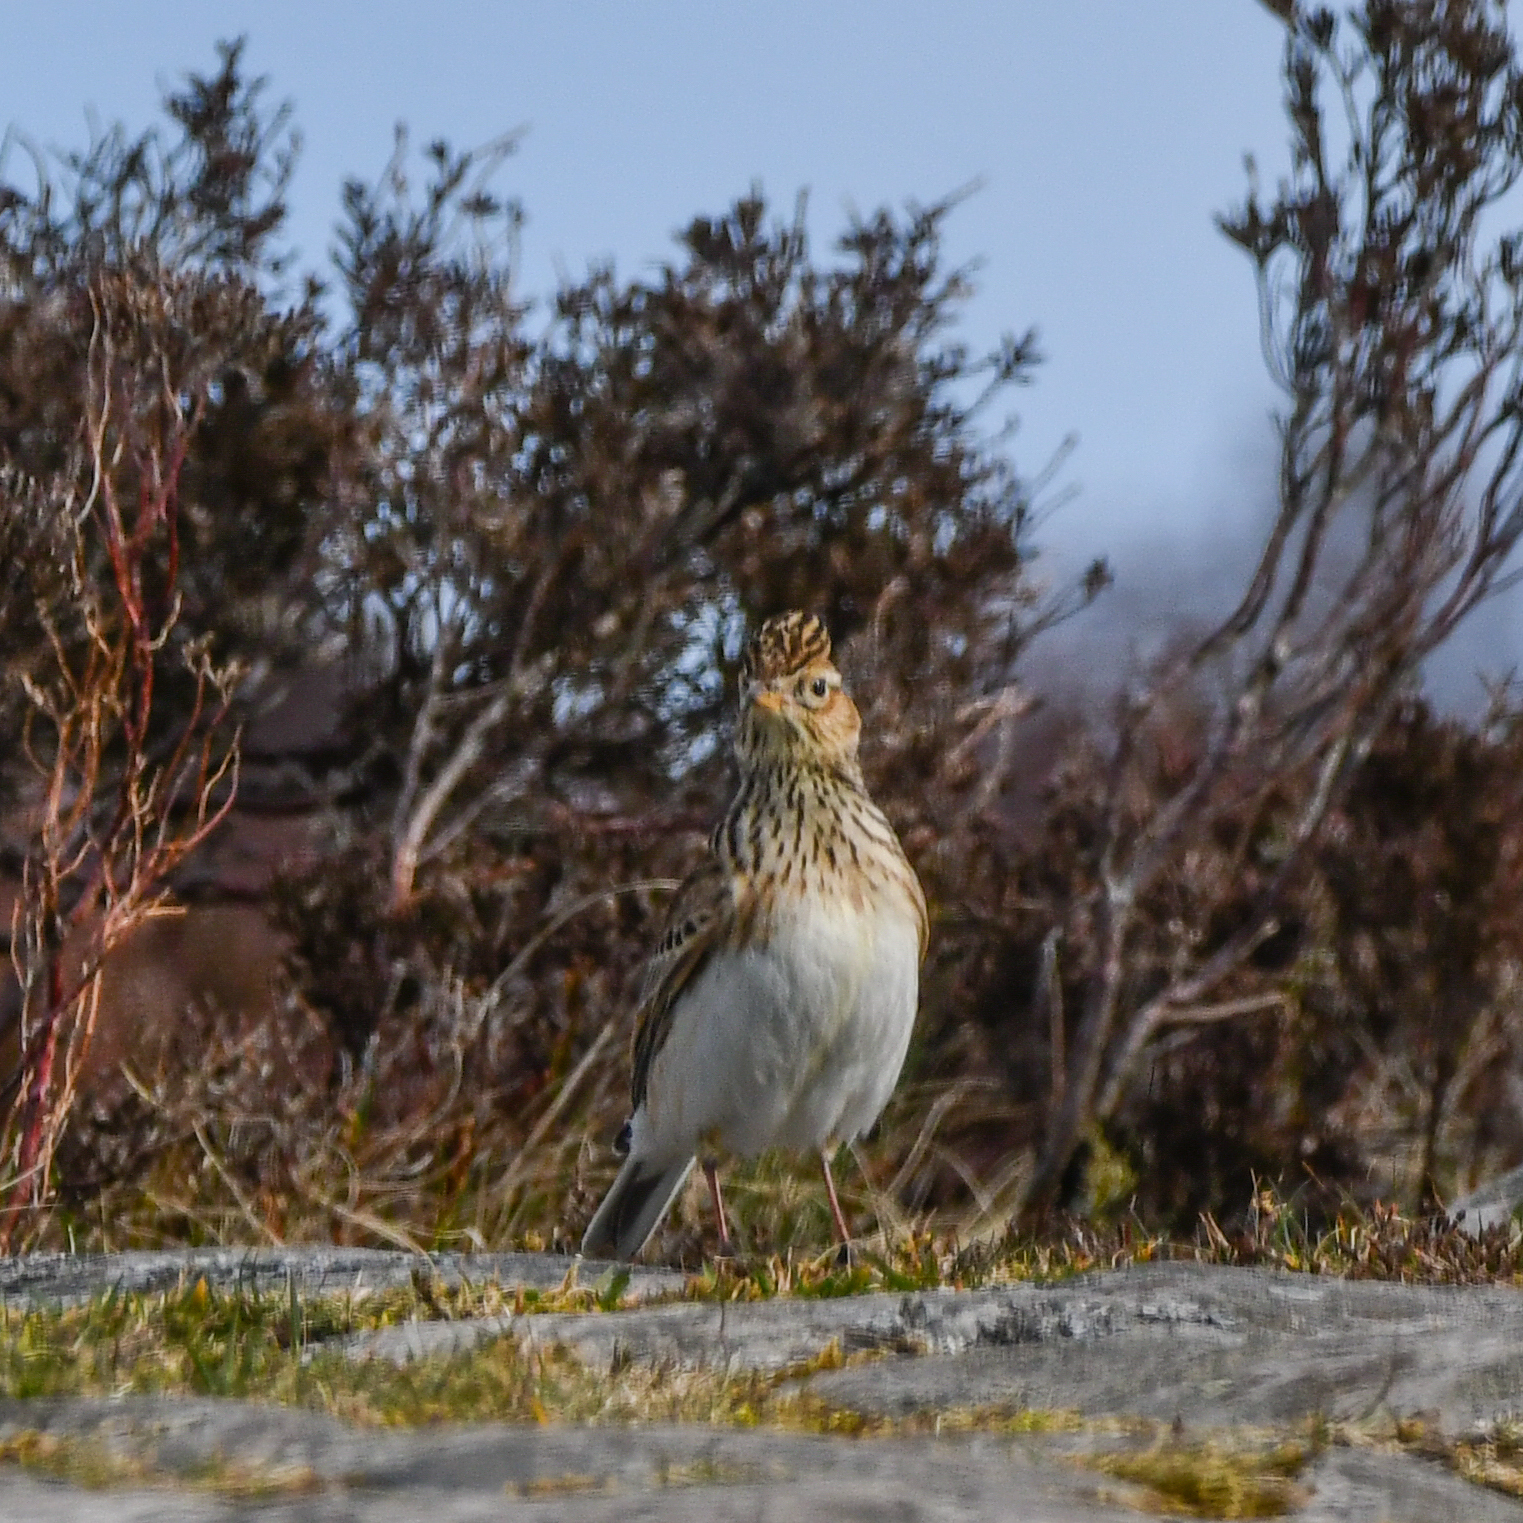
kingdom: Animalia
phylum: Chordata
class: Aves
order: Passeriformes
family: Alaudidae
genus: Alauda
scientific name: Alauda arvensis
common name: Eurasian skylark
